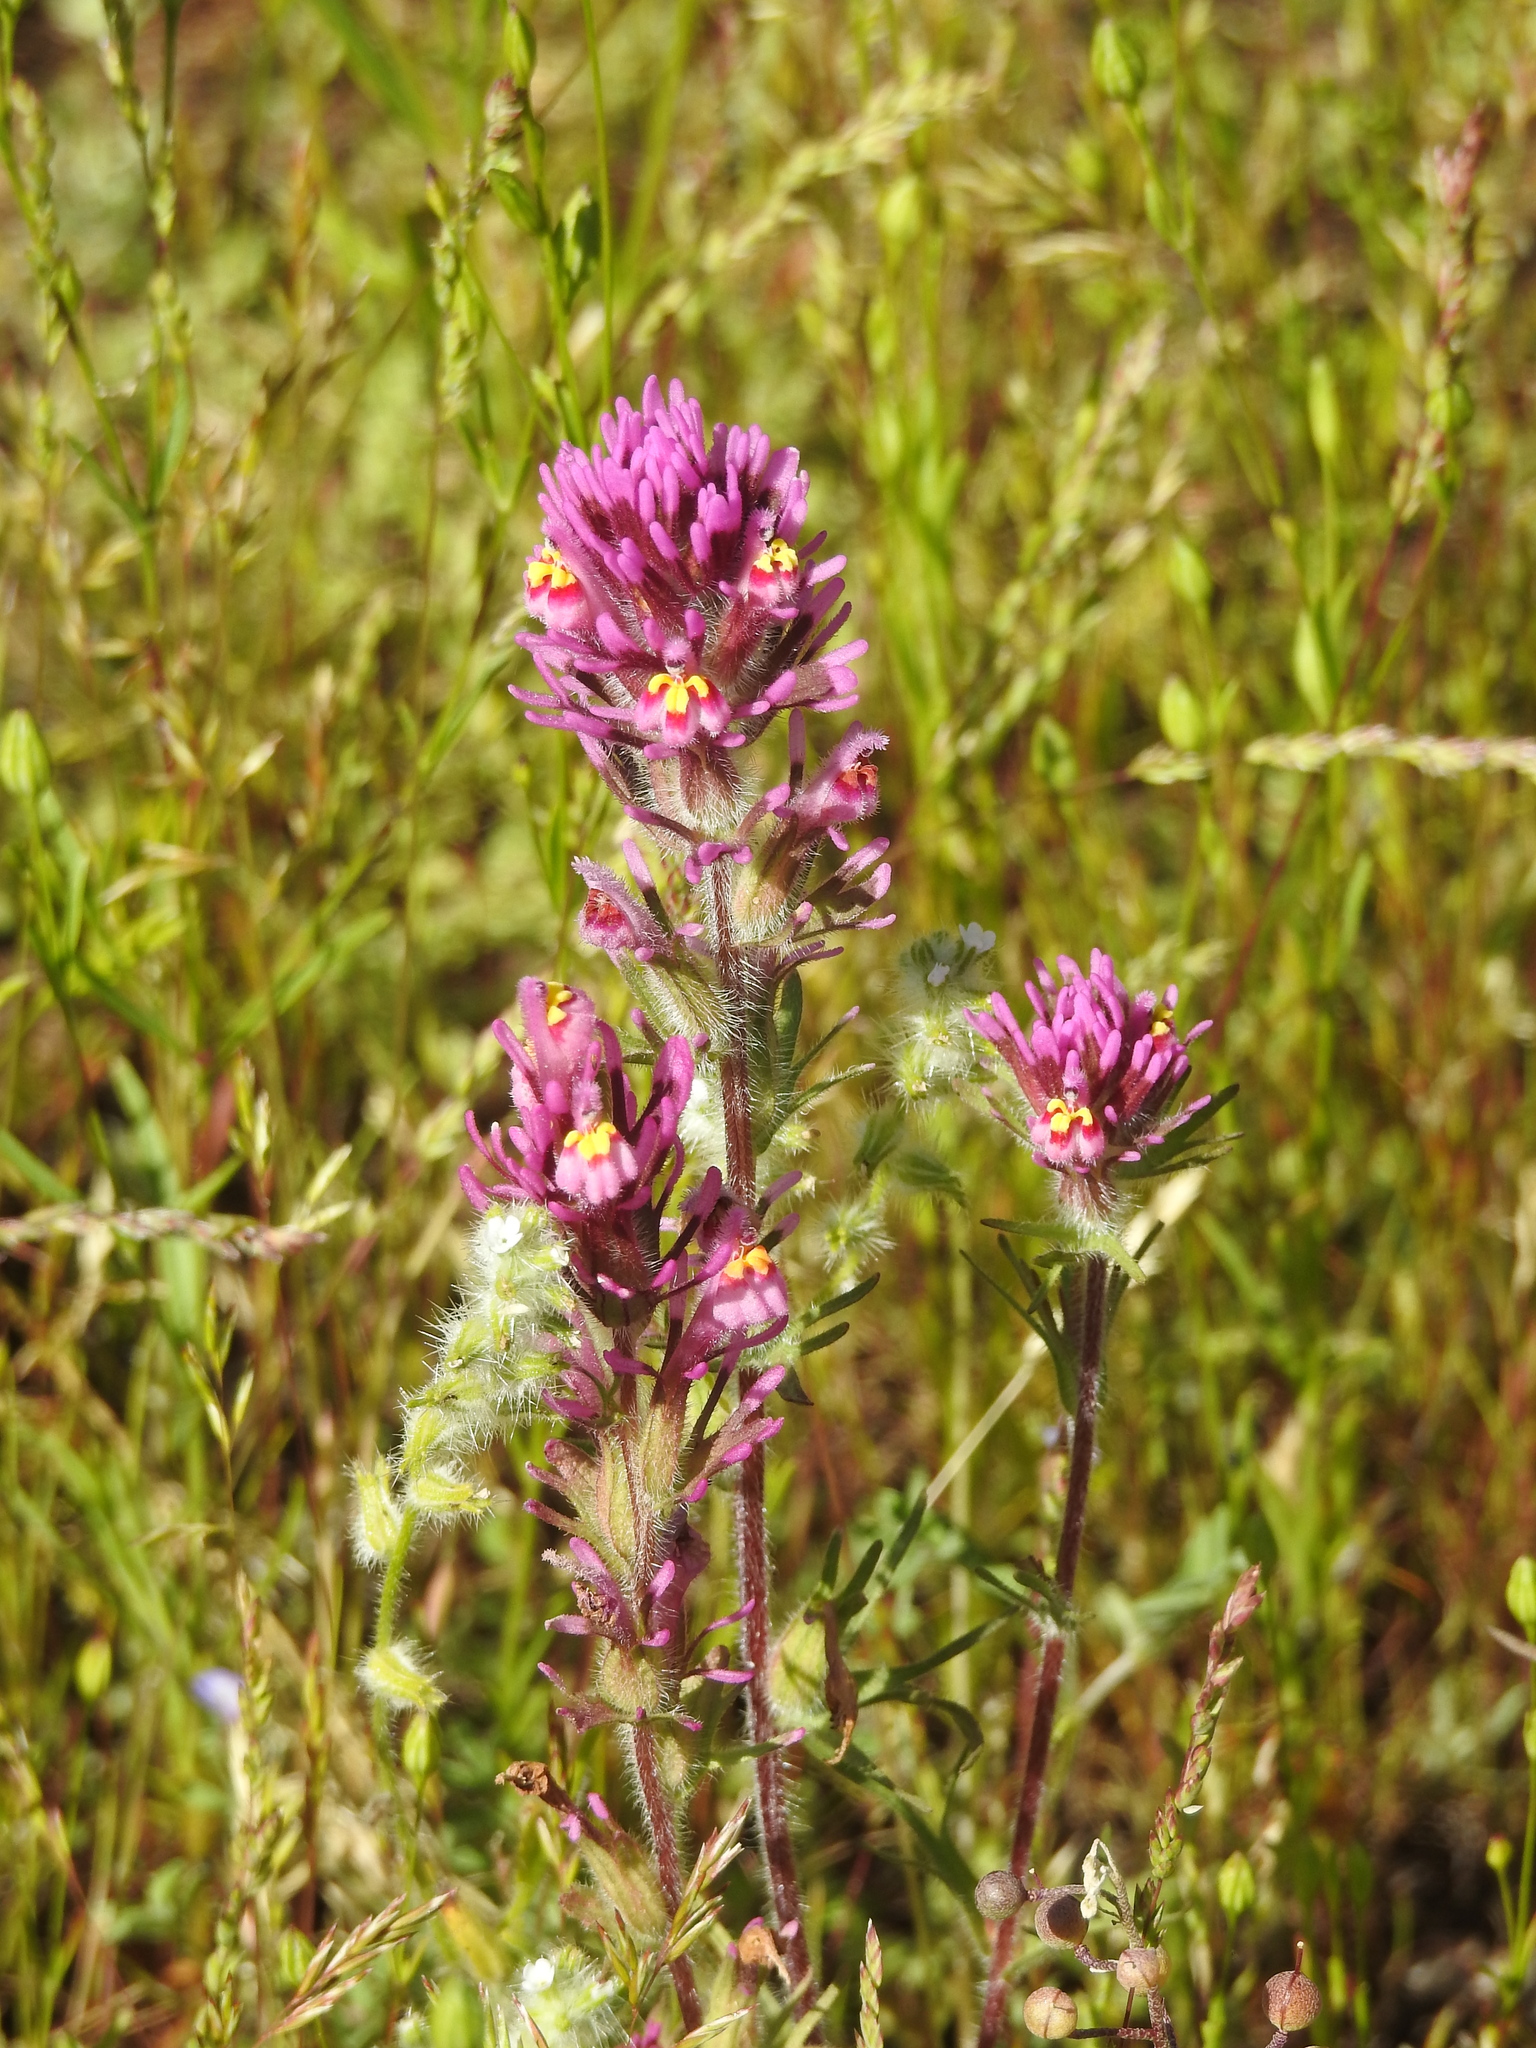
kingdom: Plantae
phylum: Tracheophyta
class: Magnoliopsida
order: Lamiales
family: Orobanchaceae
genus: Castilleja
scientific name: Castilleja exserta
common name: Purple owl-clover
